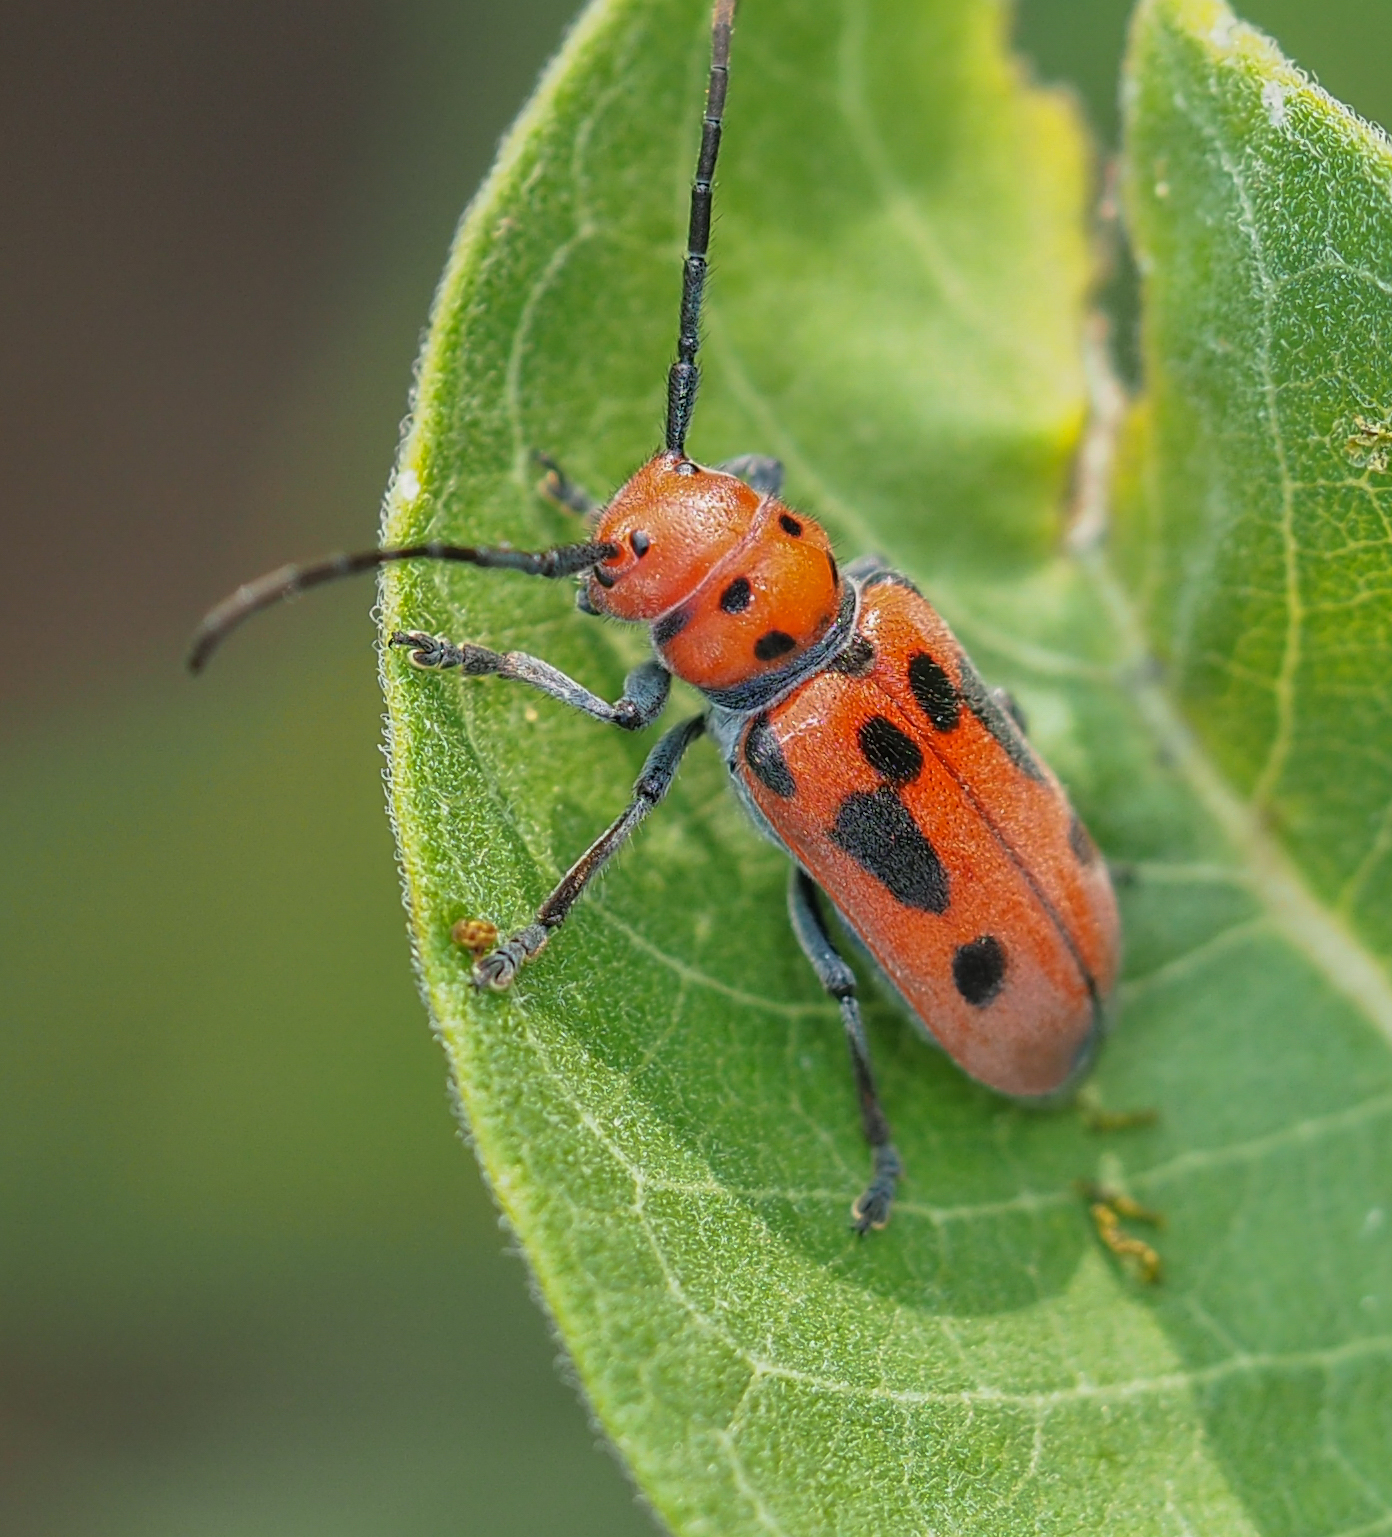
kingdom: Animalia
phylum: Arthropoda
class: Insecta
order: Coleoptera
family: Cerambycidae
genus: Tetraopes
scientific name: Tetraopes tetrophthalmus
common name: Red milkweed beetle
